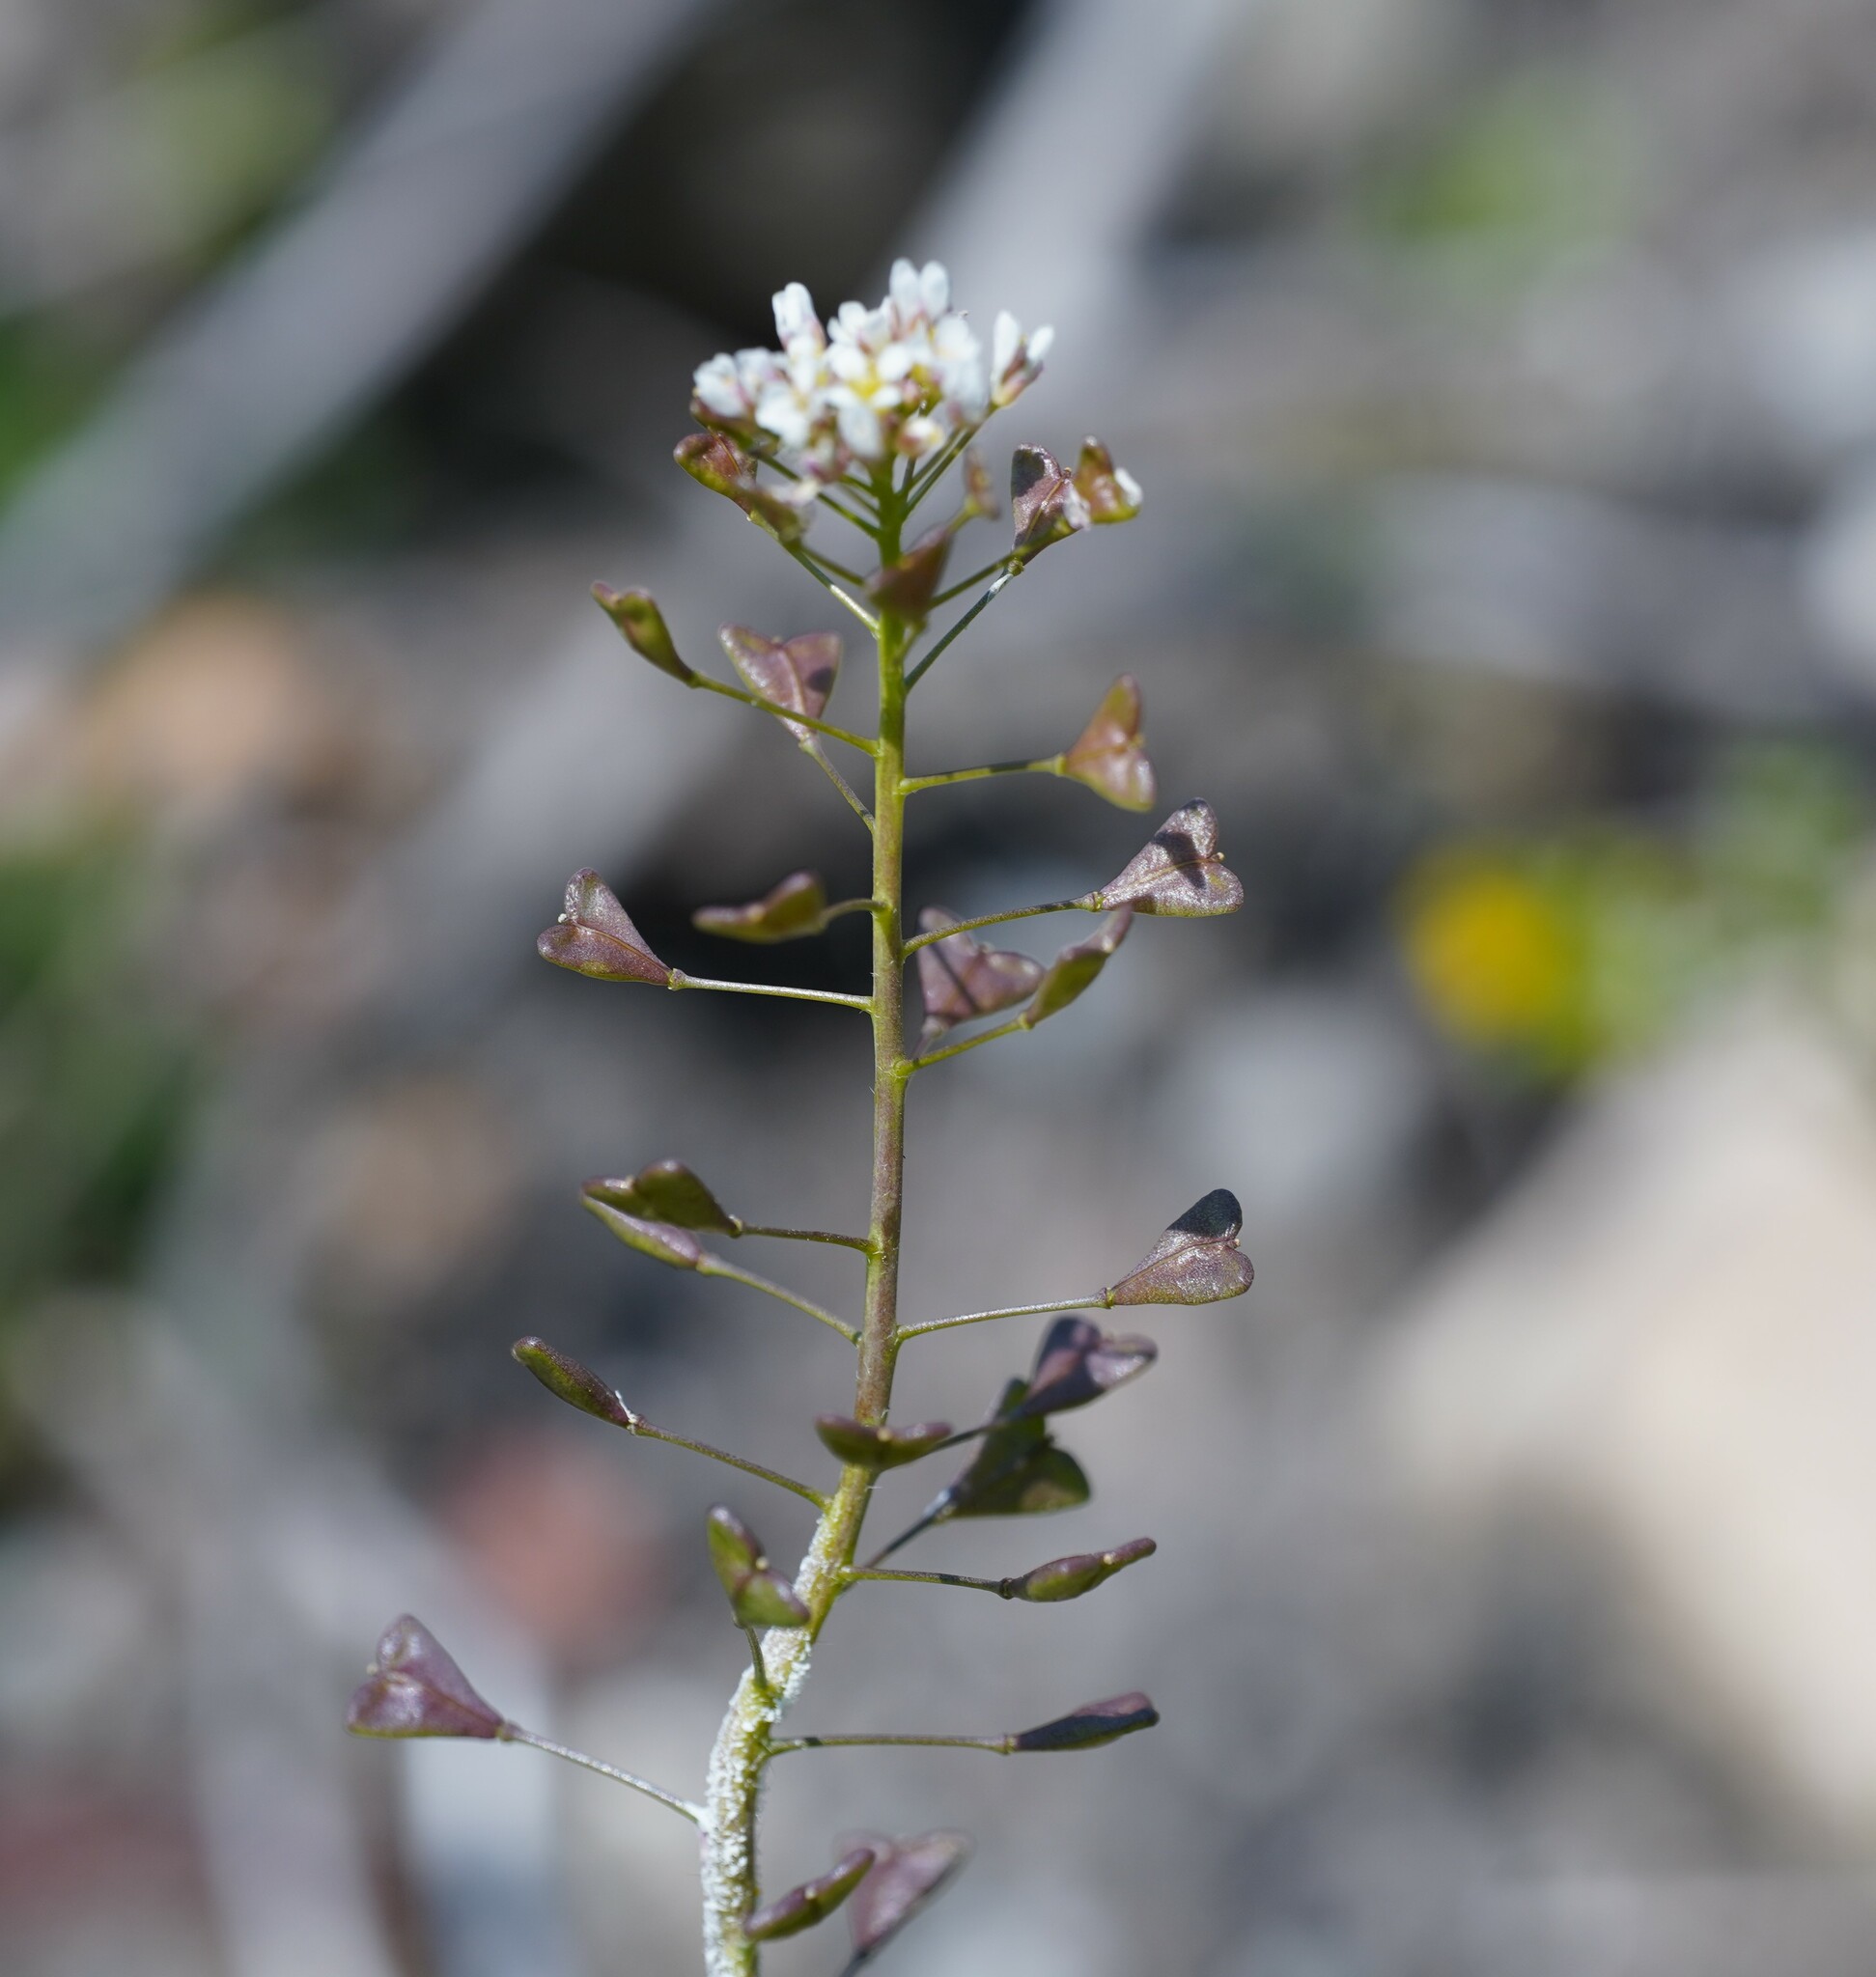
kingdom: Plantae
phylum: Tracheophyta
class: Magnoliopsida
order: Brassicales
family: Brassicaceae
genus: Capsella
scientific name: Capsella bursa-pastoris
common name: Shepherd's purse
